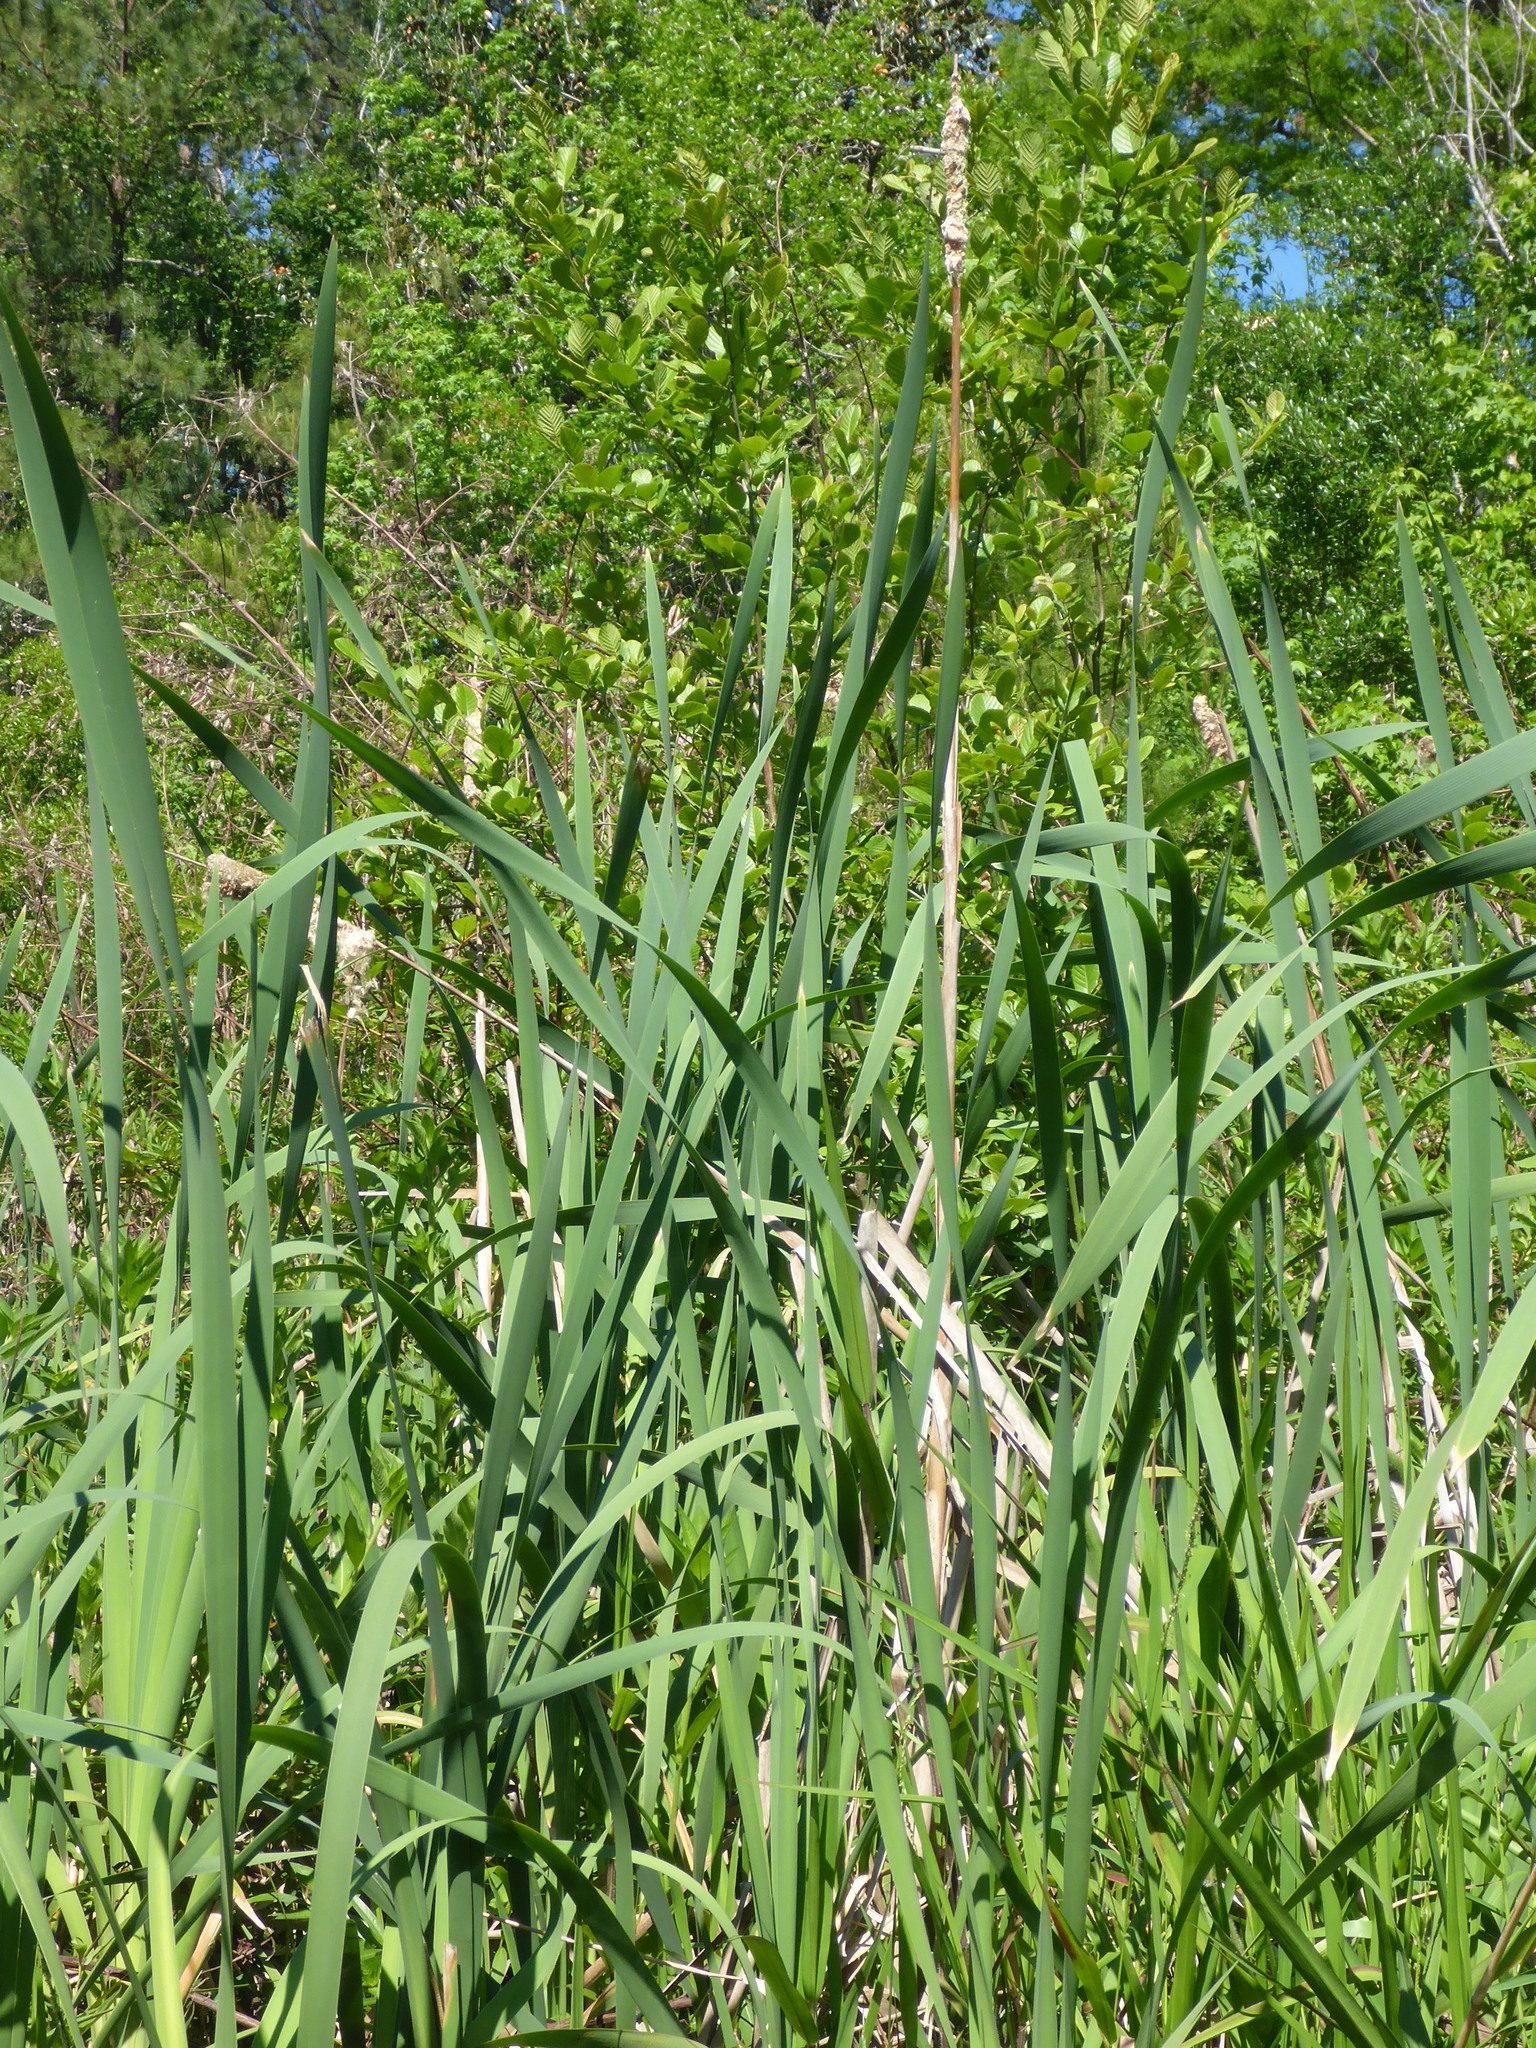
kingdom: Plantae
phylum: Tracheophyta
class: Liliopsida
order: Poales
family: Typhaceae
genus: Typha
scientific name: Typha latifolia
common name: Broadleaf cattail
